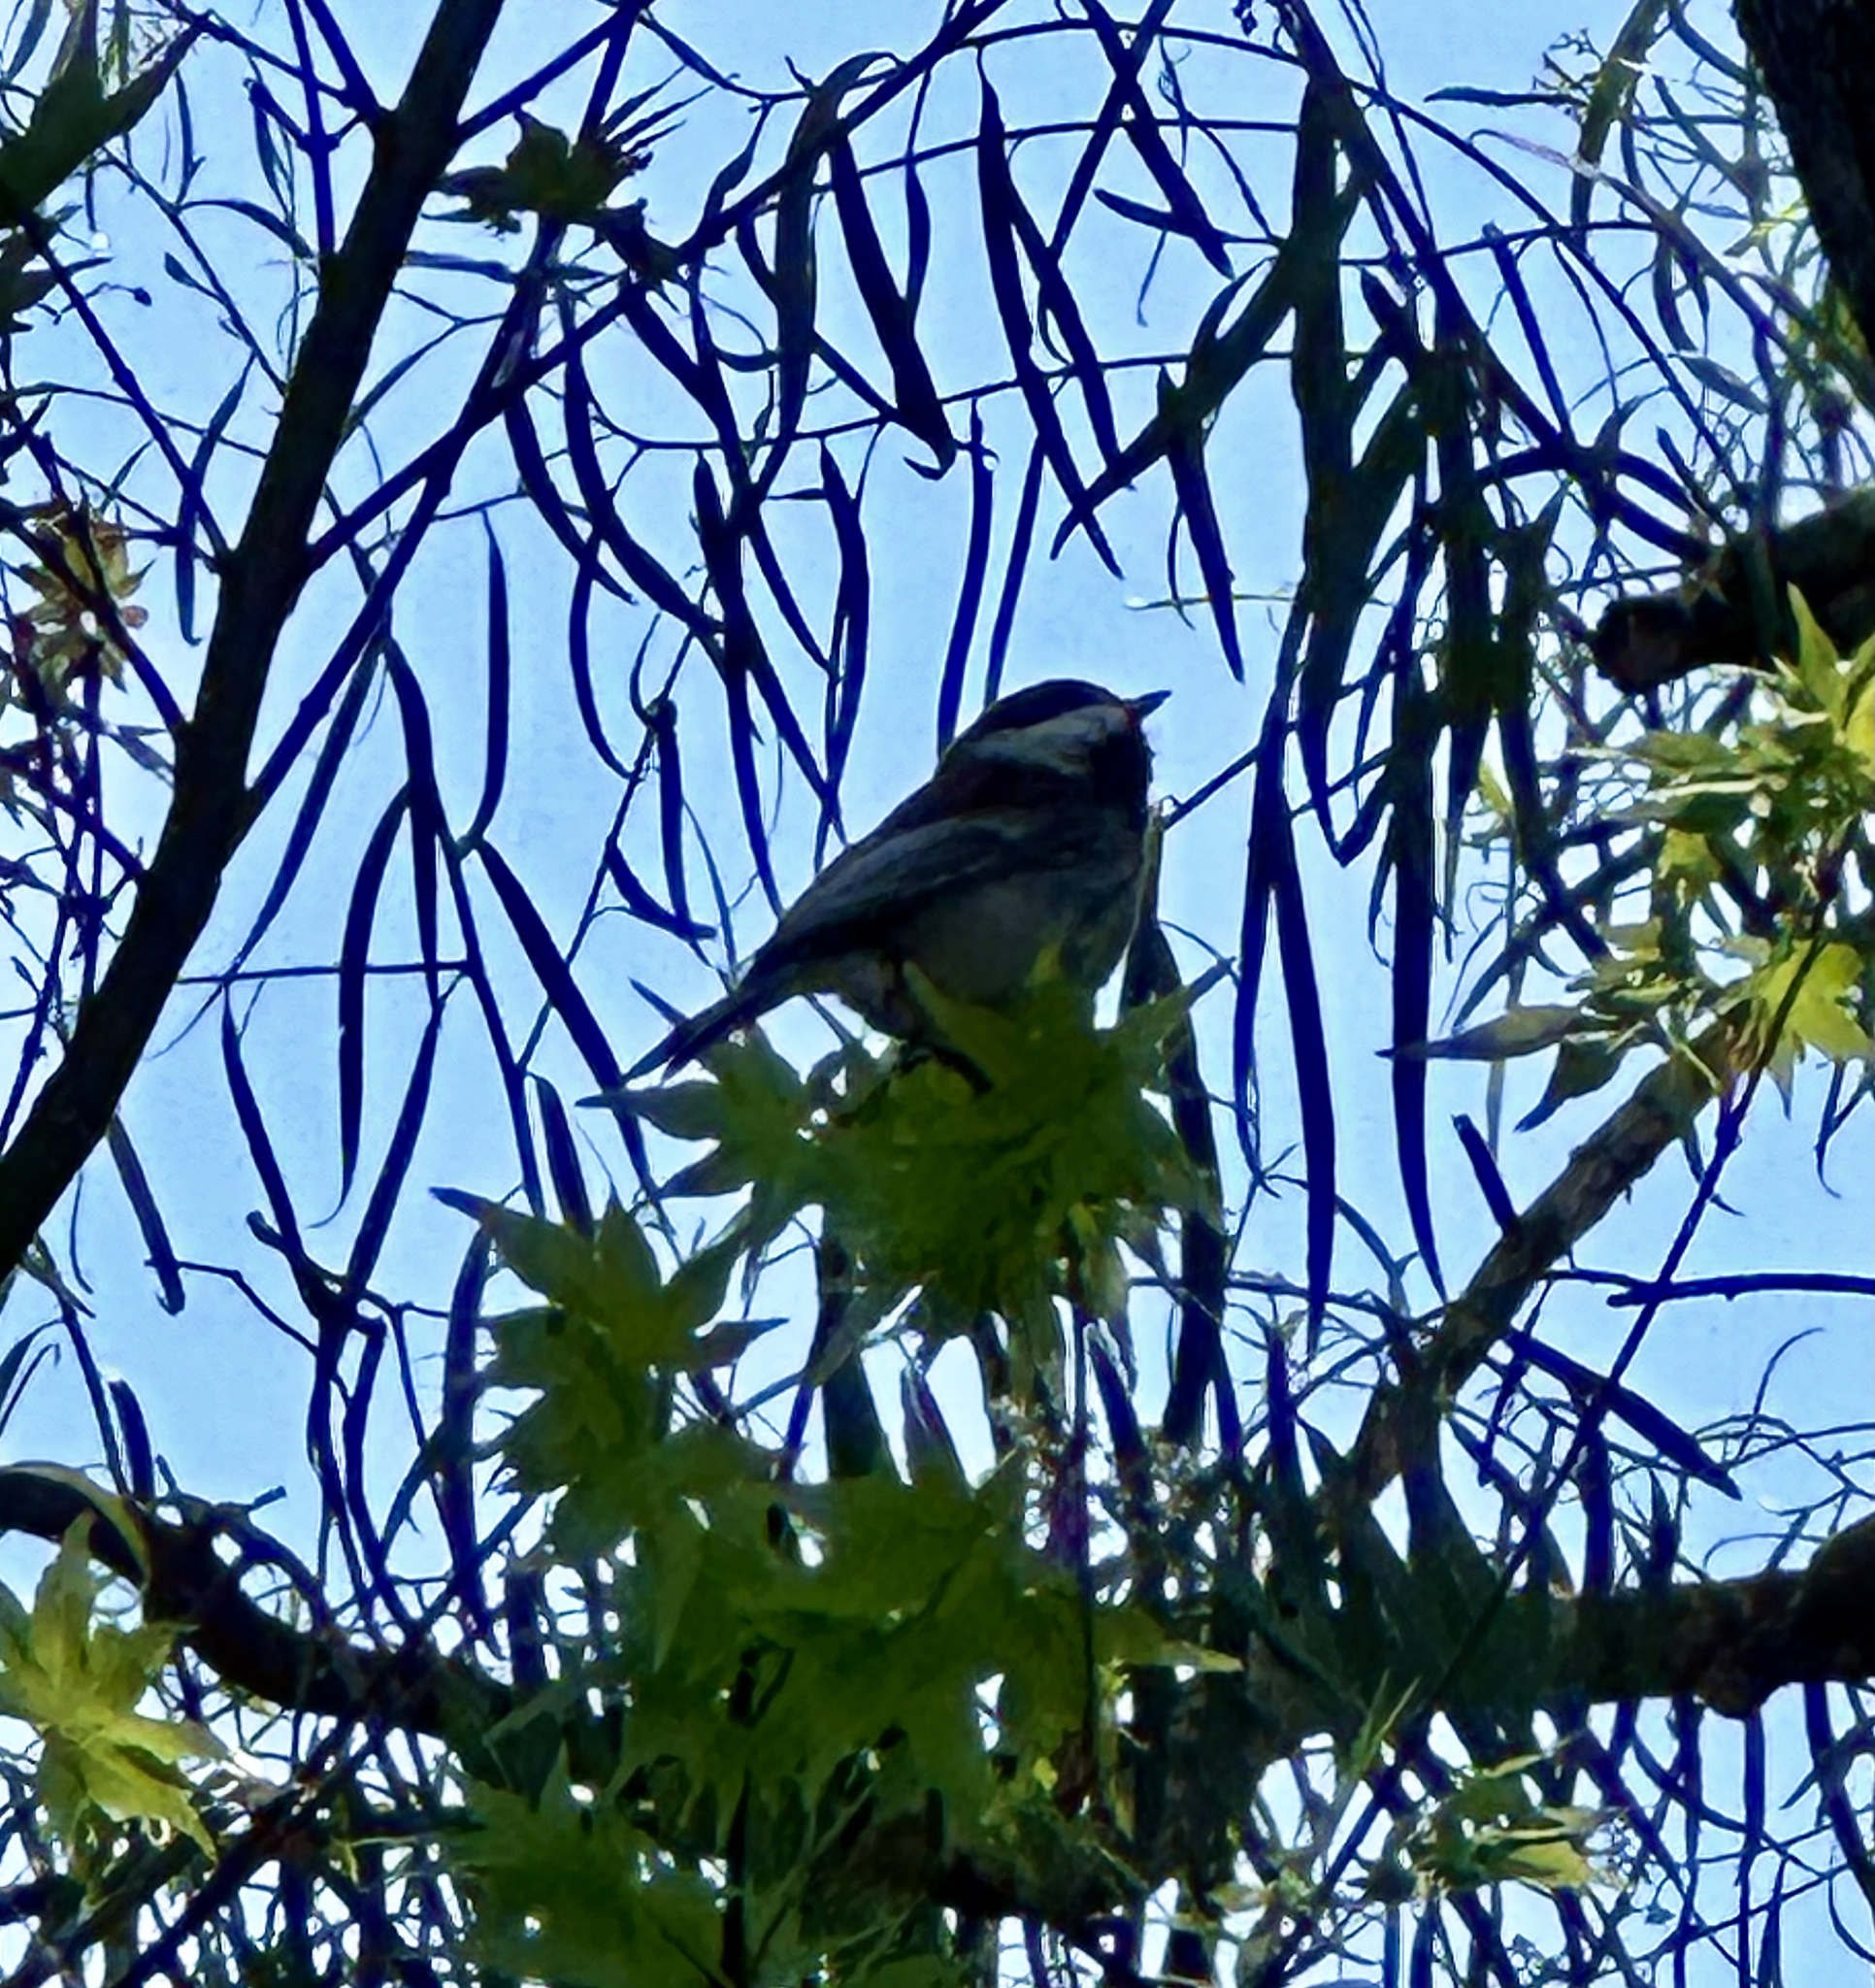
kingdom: Animalia
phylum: Chordata
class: Aves
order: Passeriformes
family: Paridae
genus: Poecile
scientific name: Poecile rufescens
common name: Chestnut-backed chickadee
